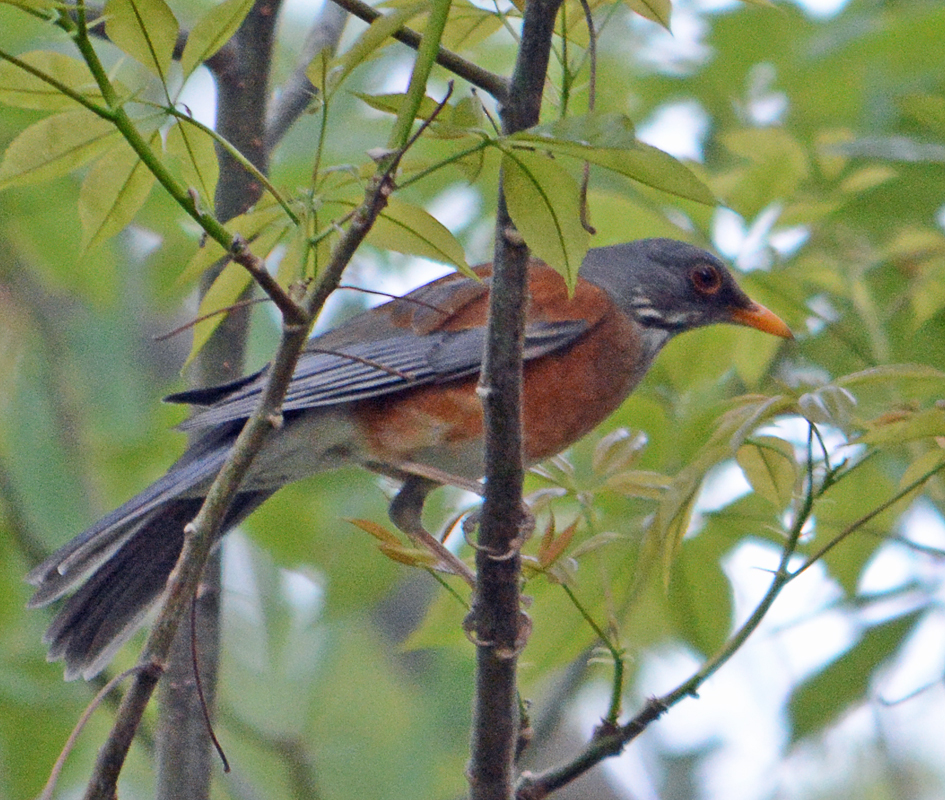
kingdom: Animalia
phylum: Chordata
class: Aves
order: Passeriformes
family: Turdidae
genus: Turdus
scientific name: Turdus rufopalliatus
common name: Rufous-backed robin
